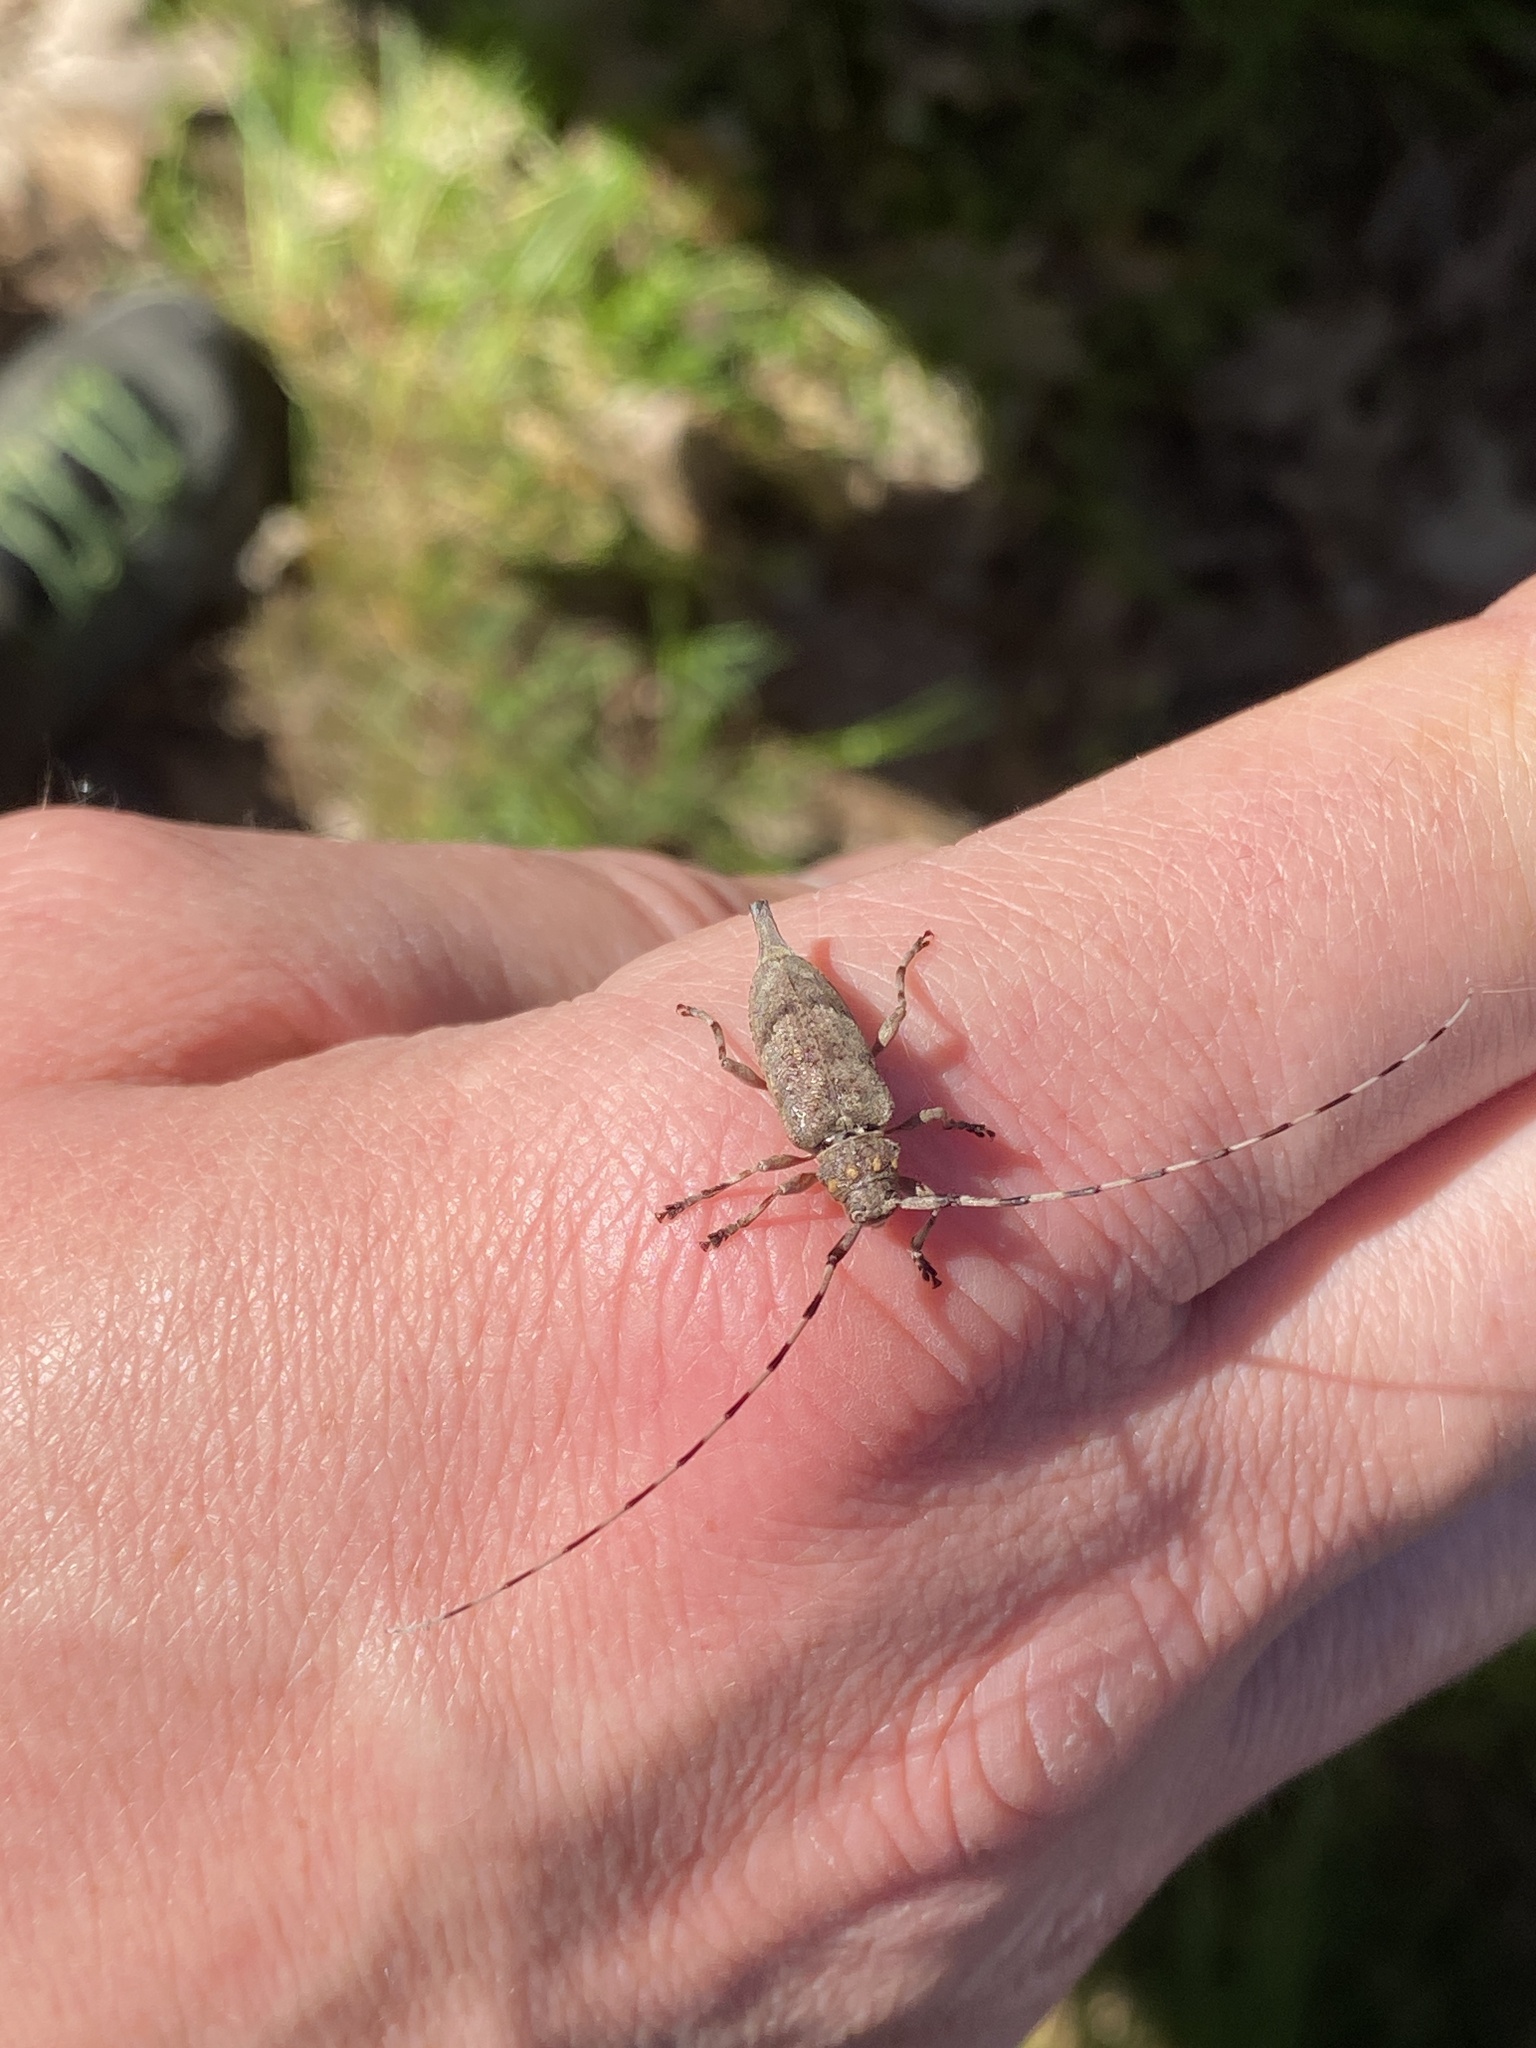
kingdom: Animalia
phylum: Arthropoda
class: Insecta
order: Coleoptera
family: Cerambycidae
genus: Acanthocinus
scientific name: Acanthocinus aedilis
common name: Timberman beetle
